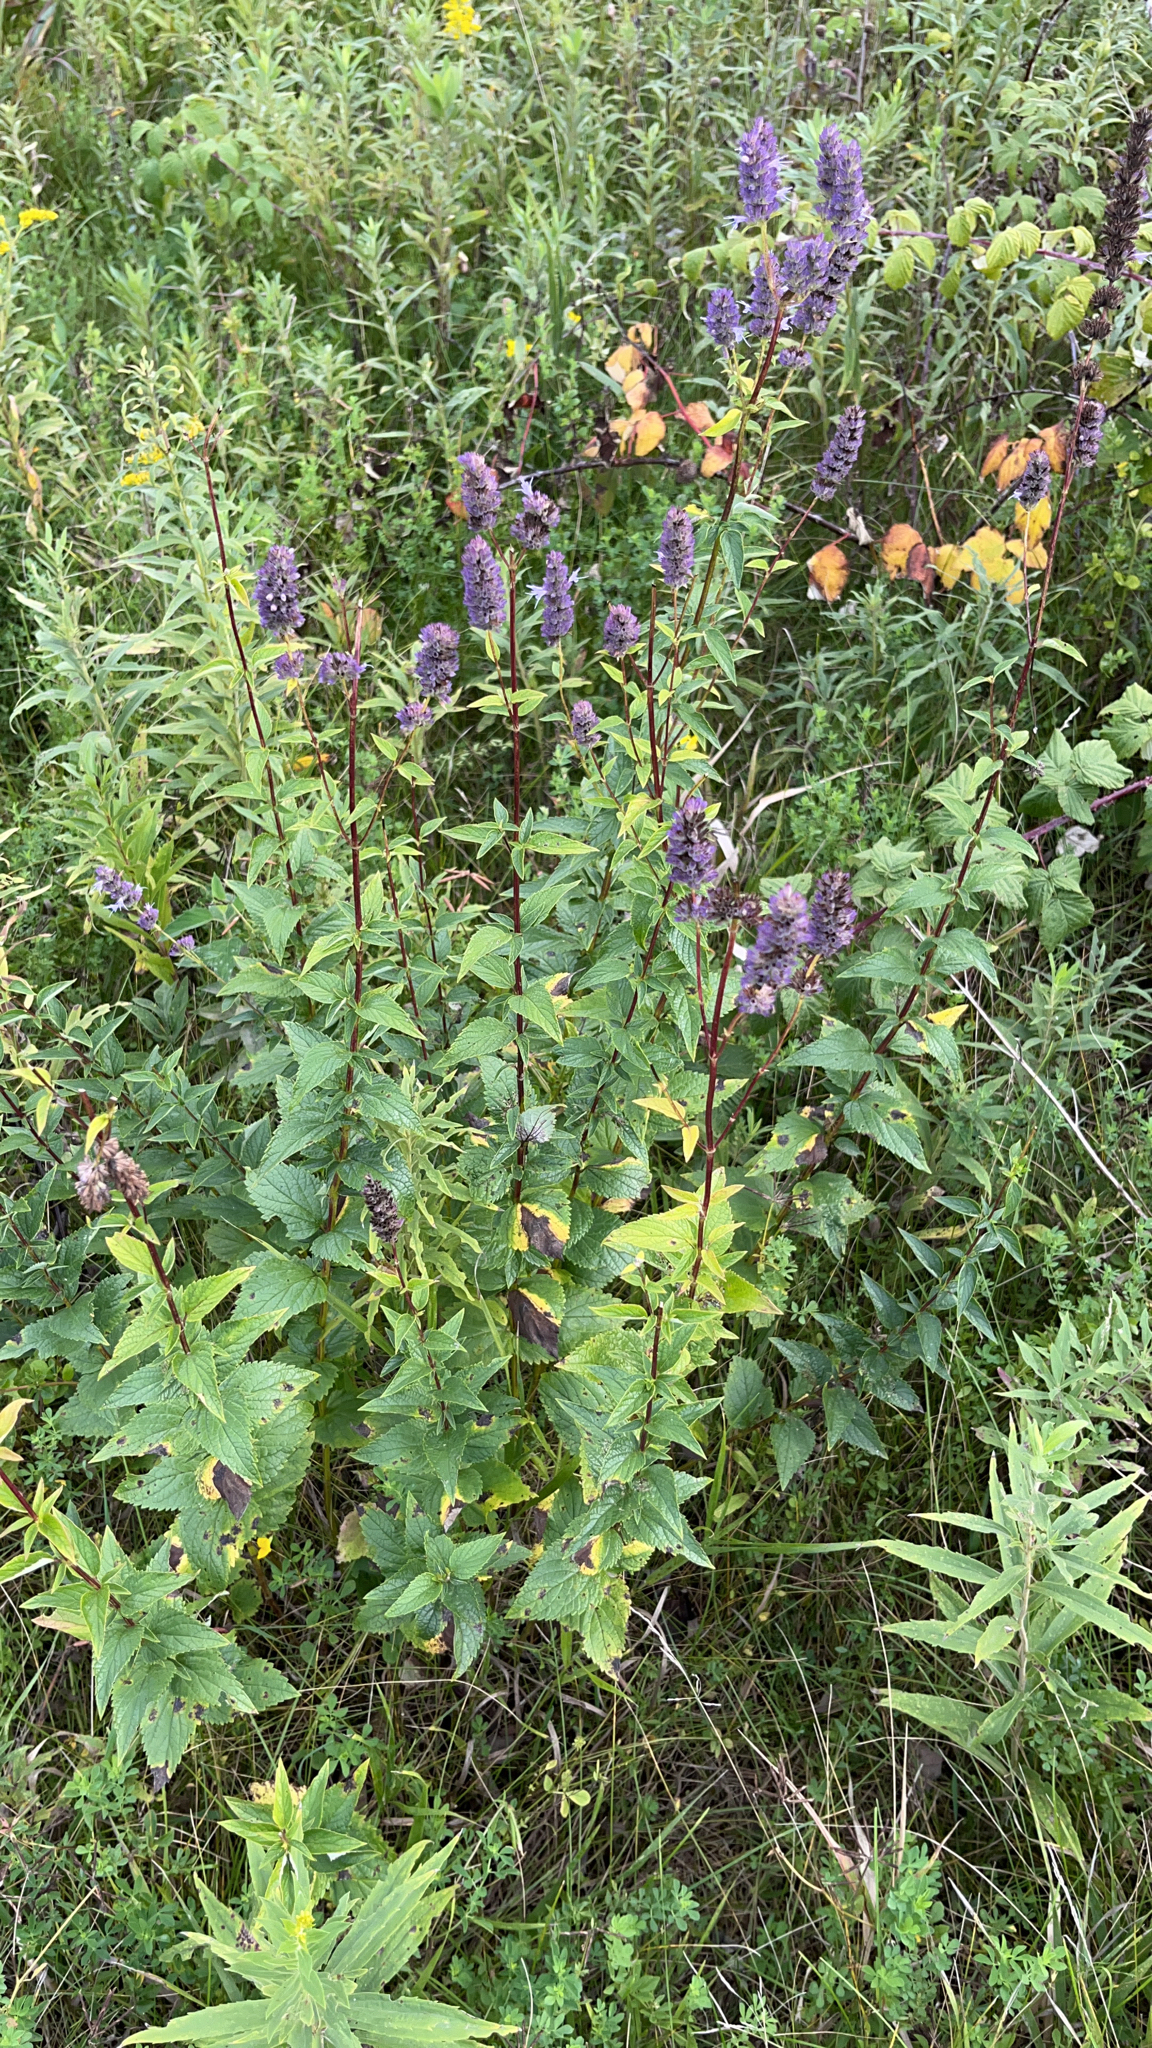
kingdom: Plantae
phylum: Tracheophyta
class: Magnoliopsida
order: Lamiales
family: Lamiaceae
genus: Agastache
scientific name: Agastache foeniculum
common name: Anise hyssop
